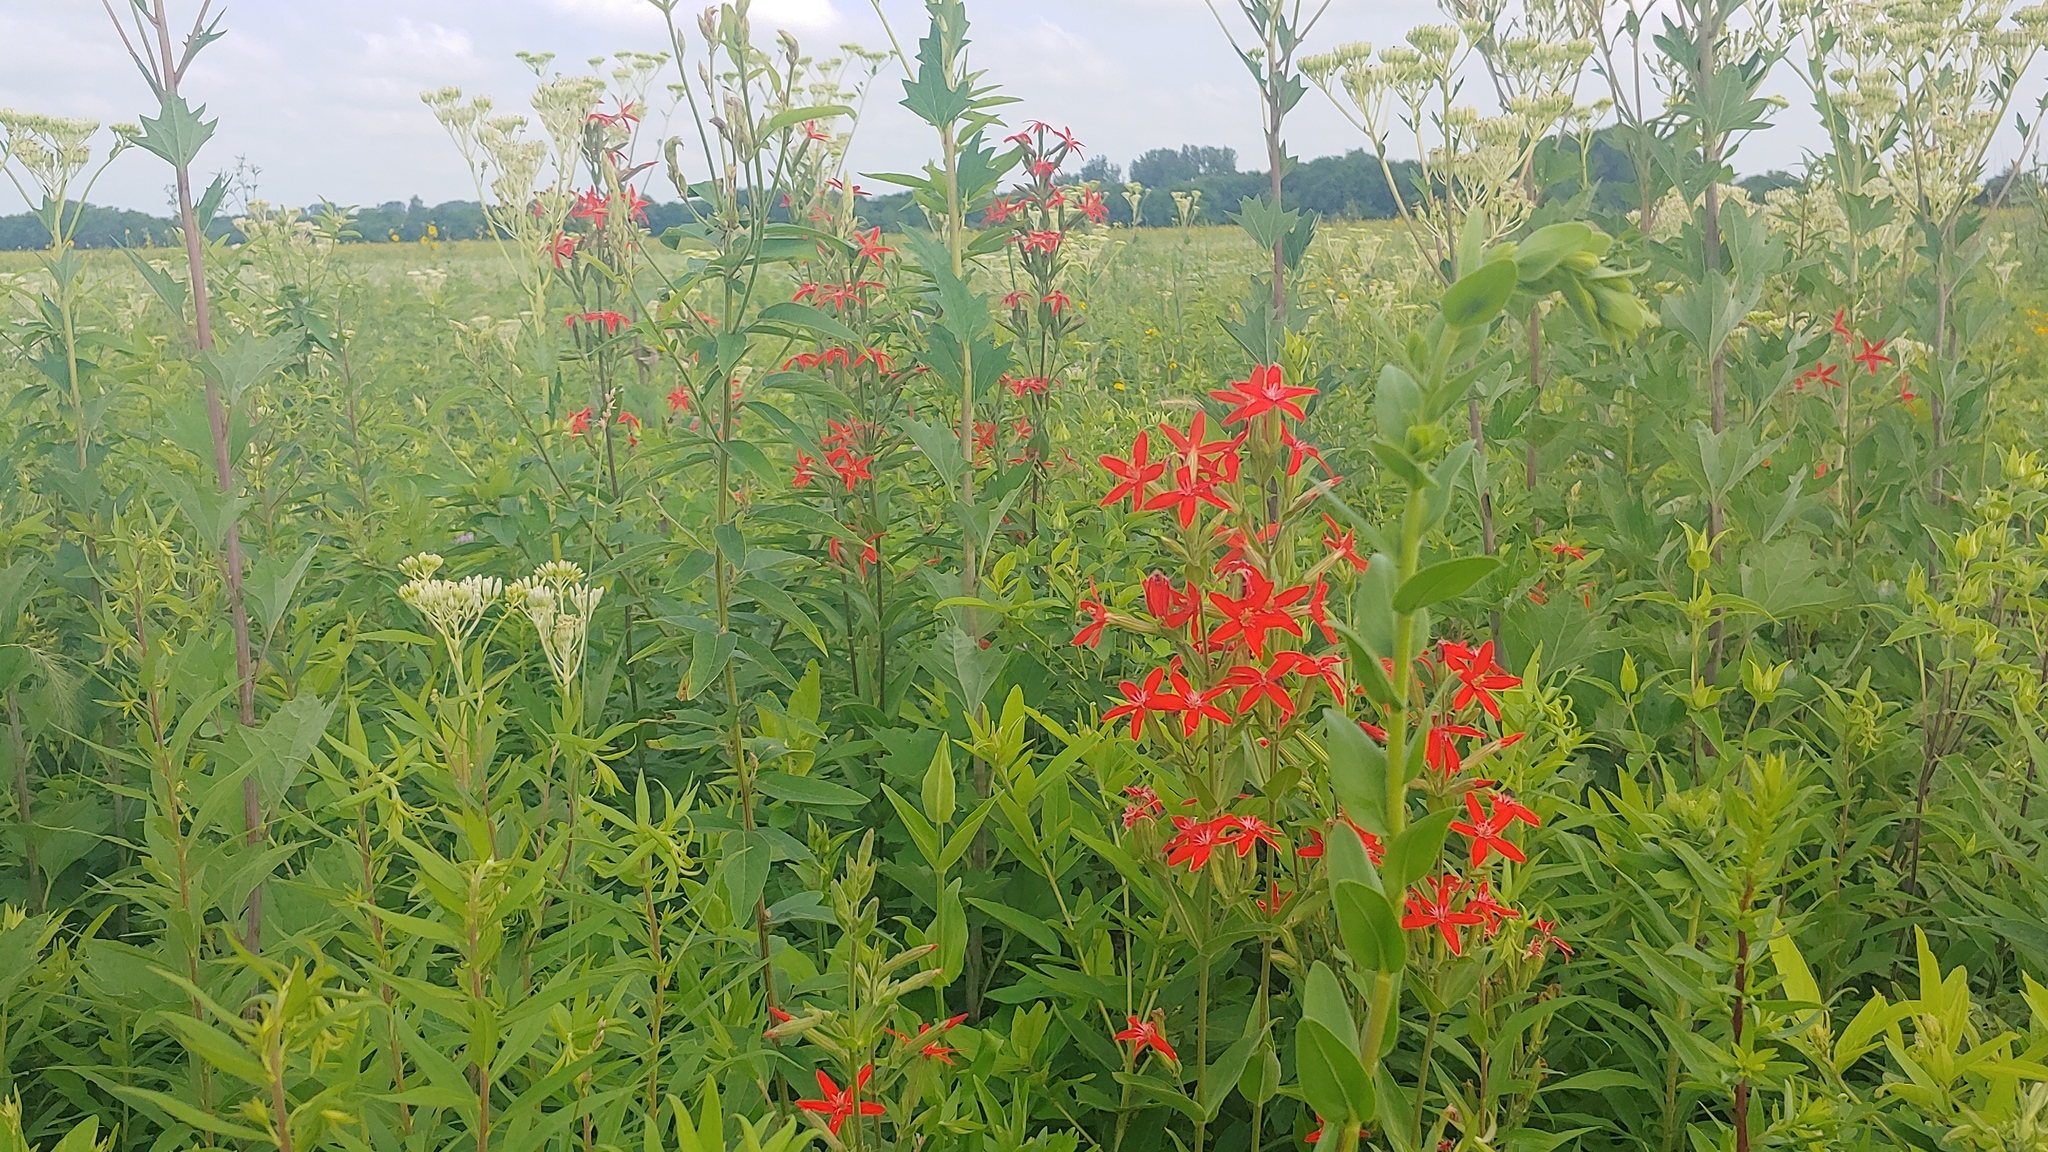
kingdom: Plantae
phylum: Tracheophyta
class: Magnoliopsida
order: Caryophyllales
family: Caryophyllaceae
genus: Silene
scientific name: Silene regia
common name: Royal catchfly
